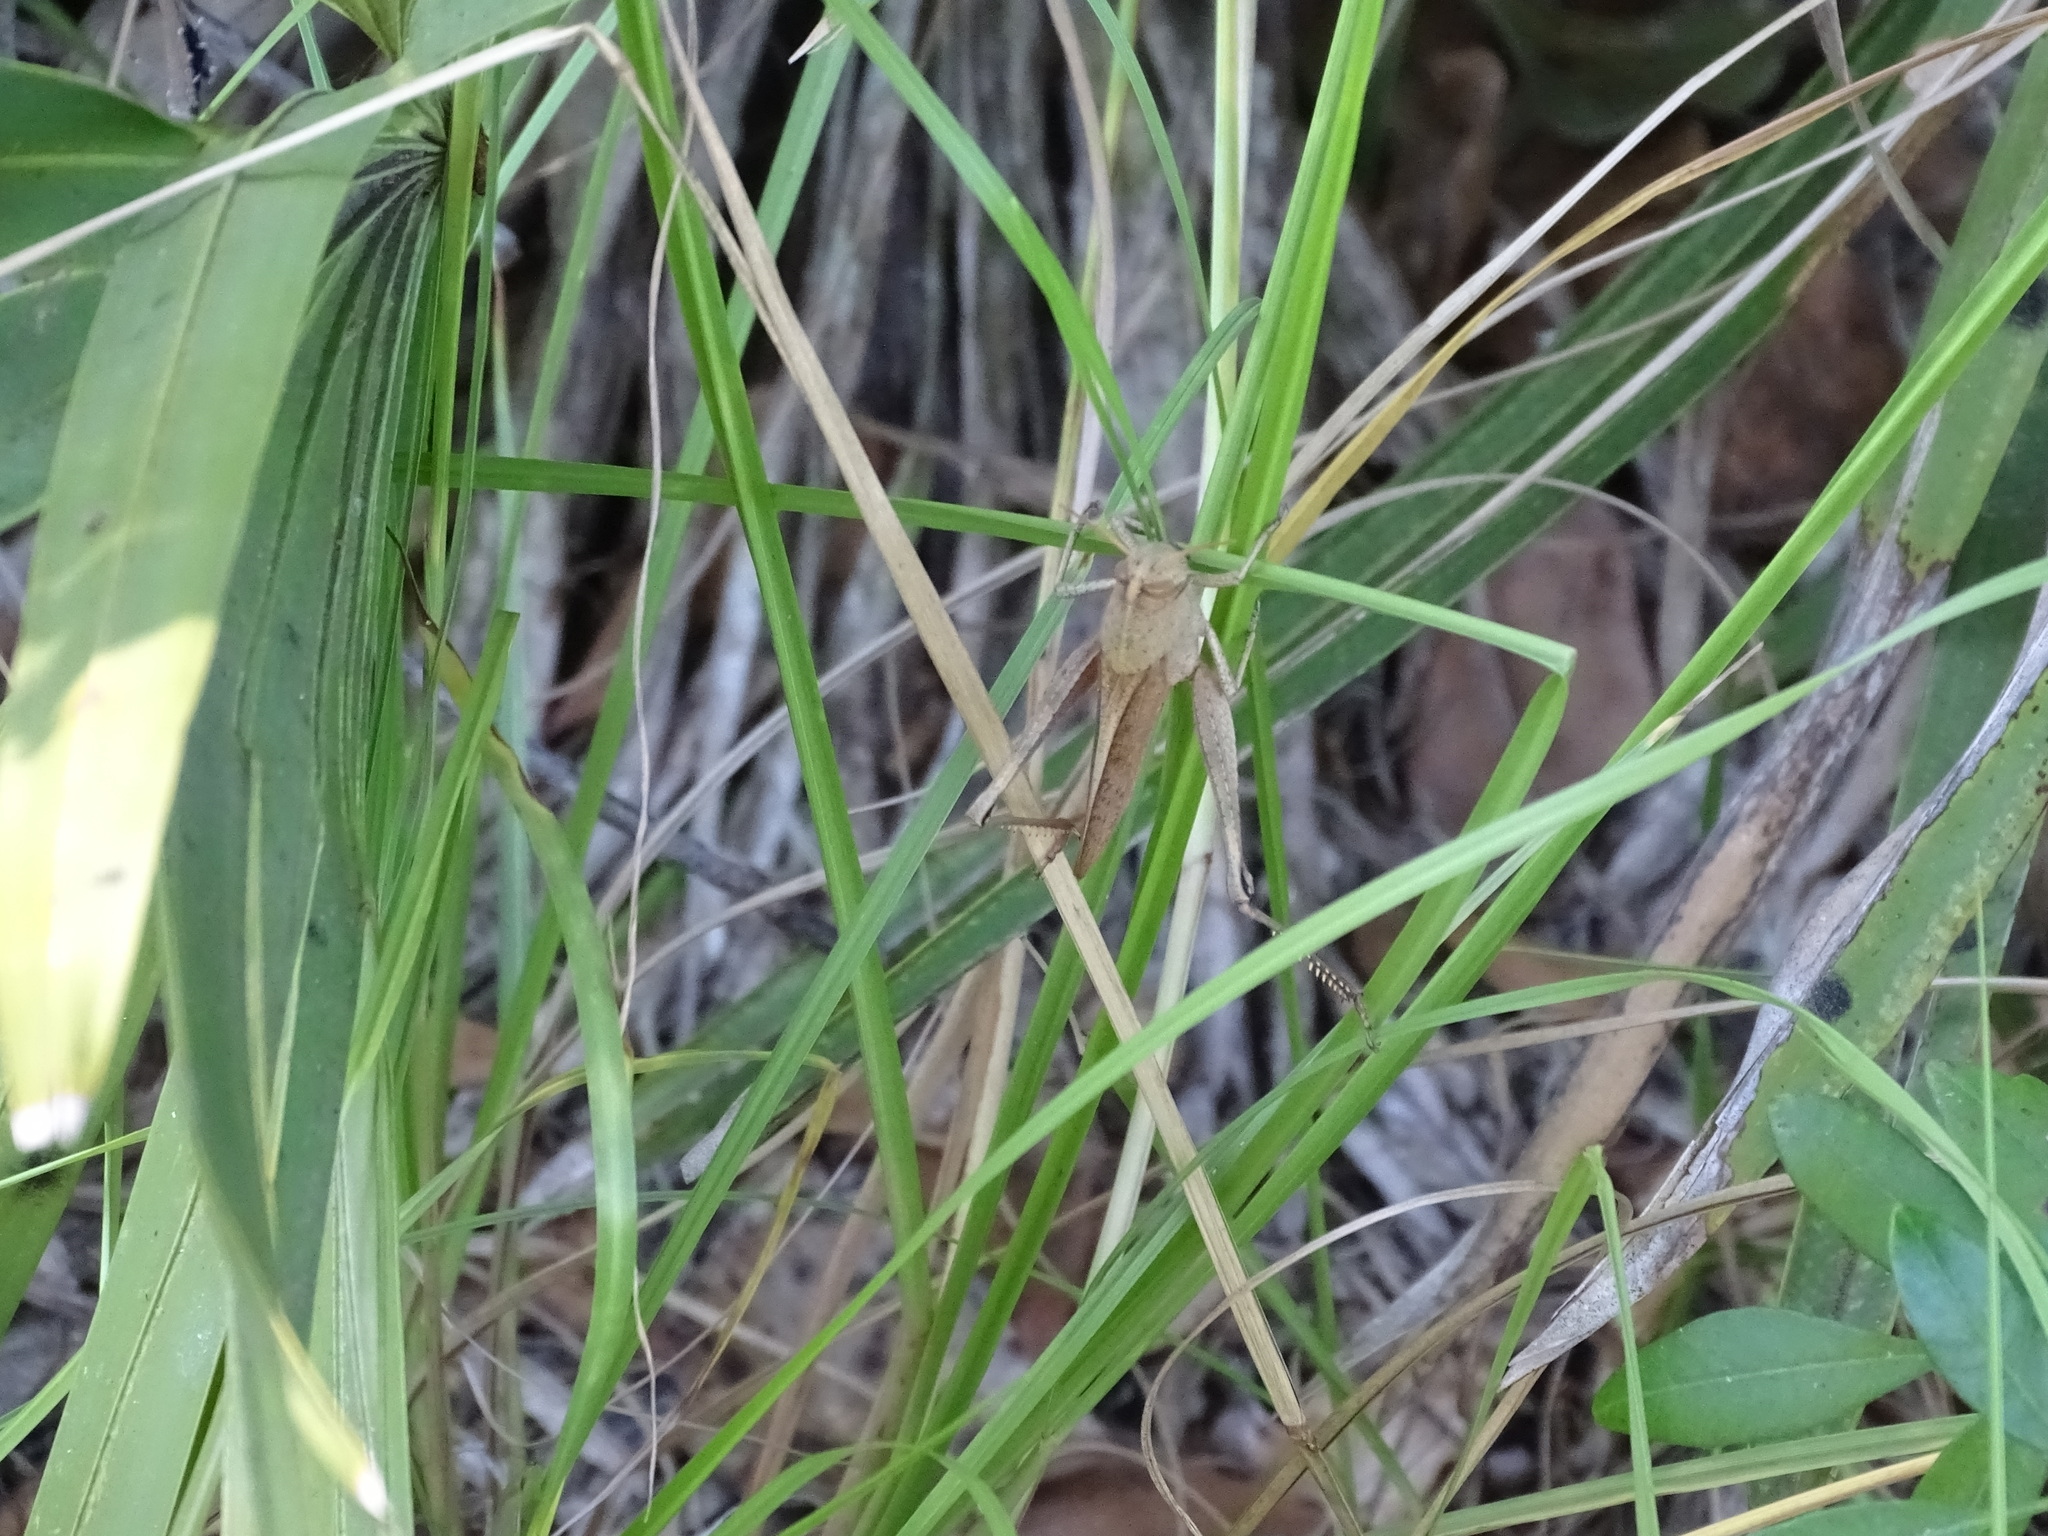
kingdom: Animalia
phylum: Arthropoda
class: Insecta
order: Orthoptera
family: Acrididae
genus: Schistocerca
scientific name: Schistocerca damnifica
